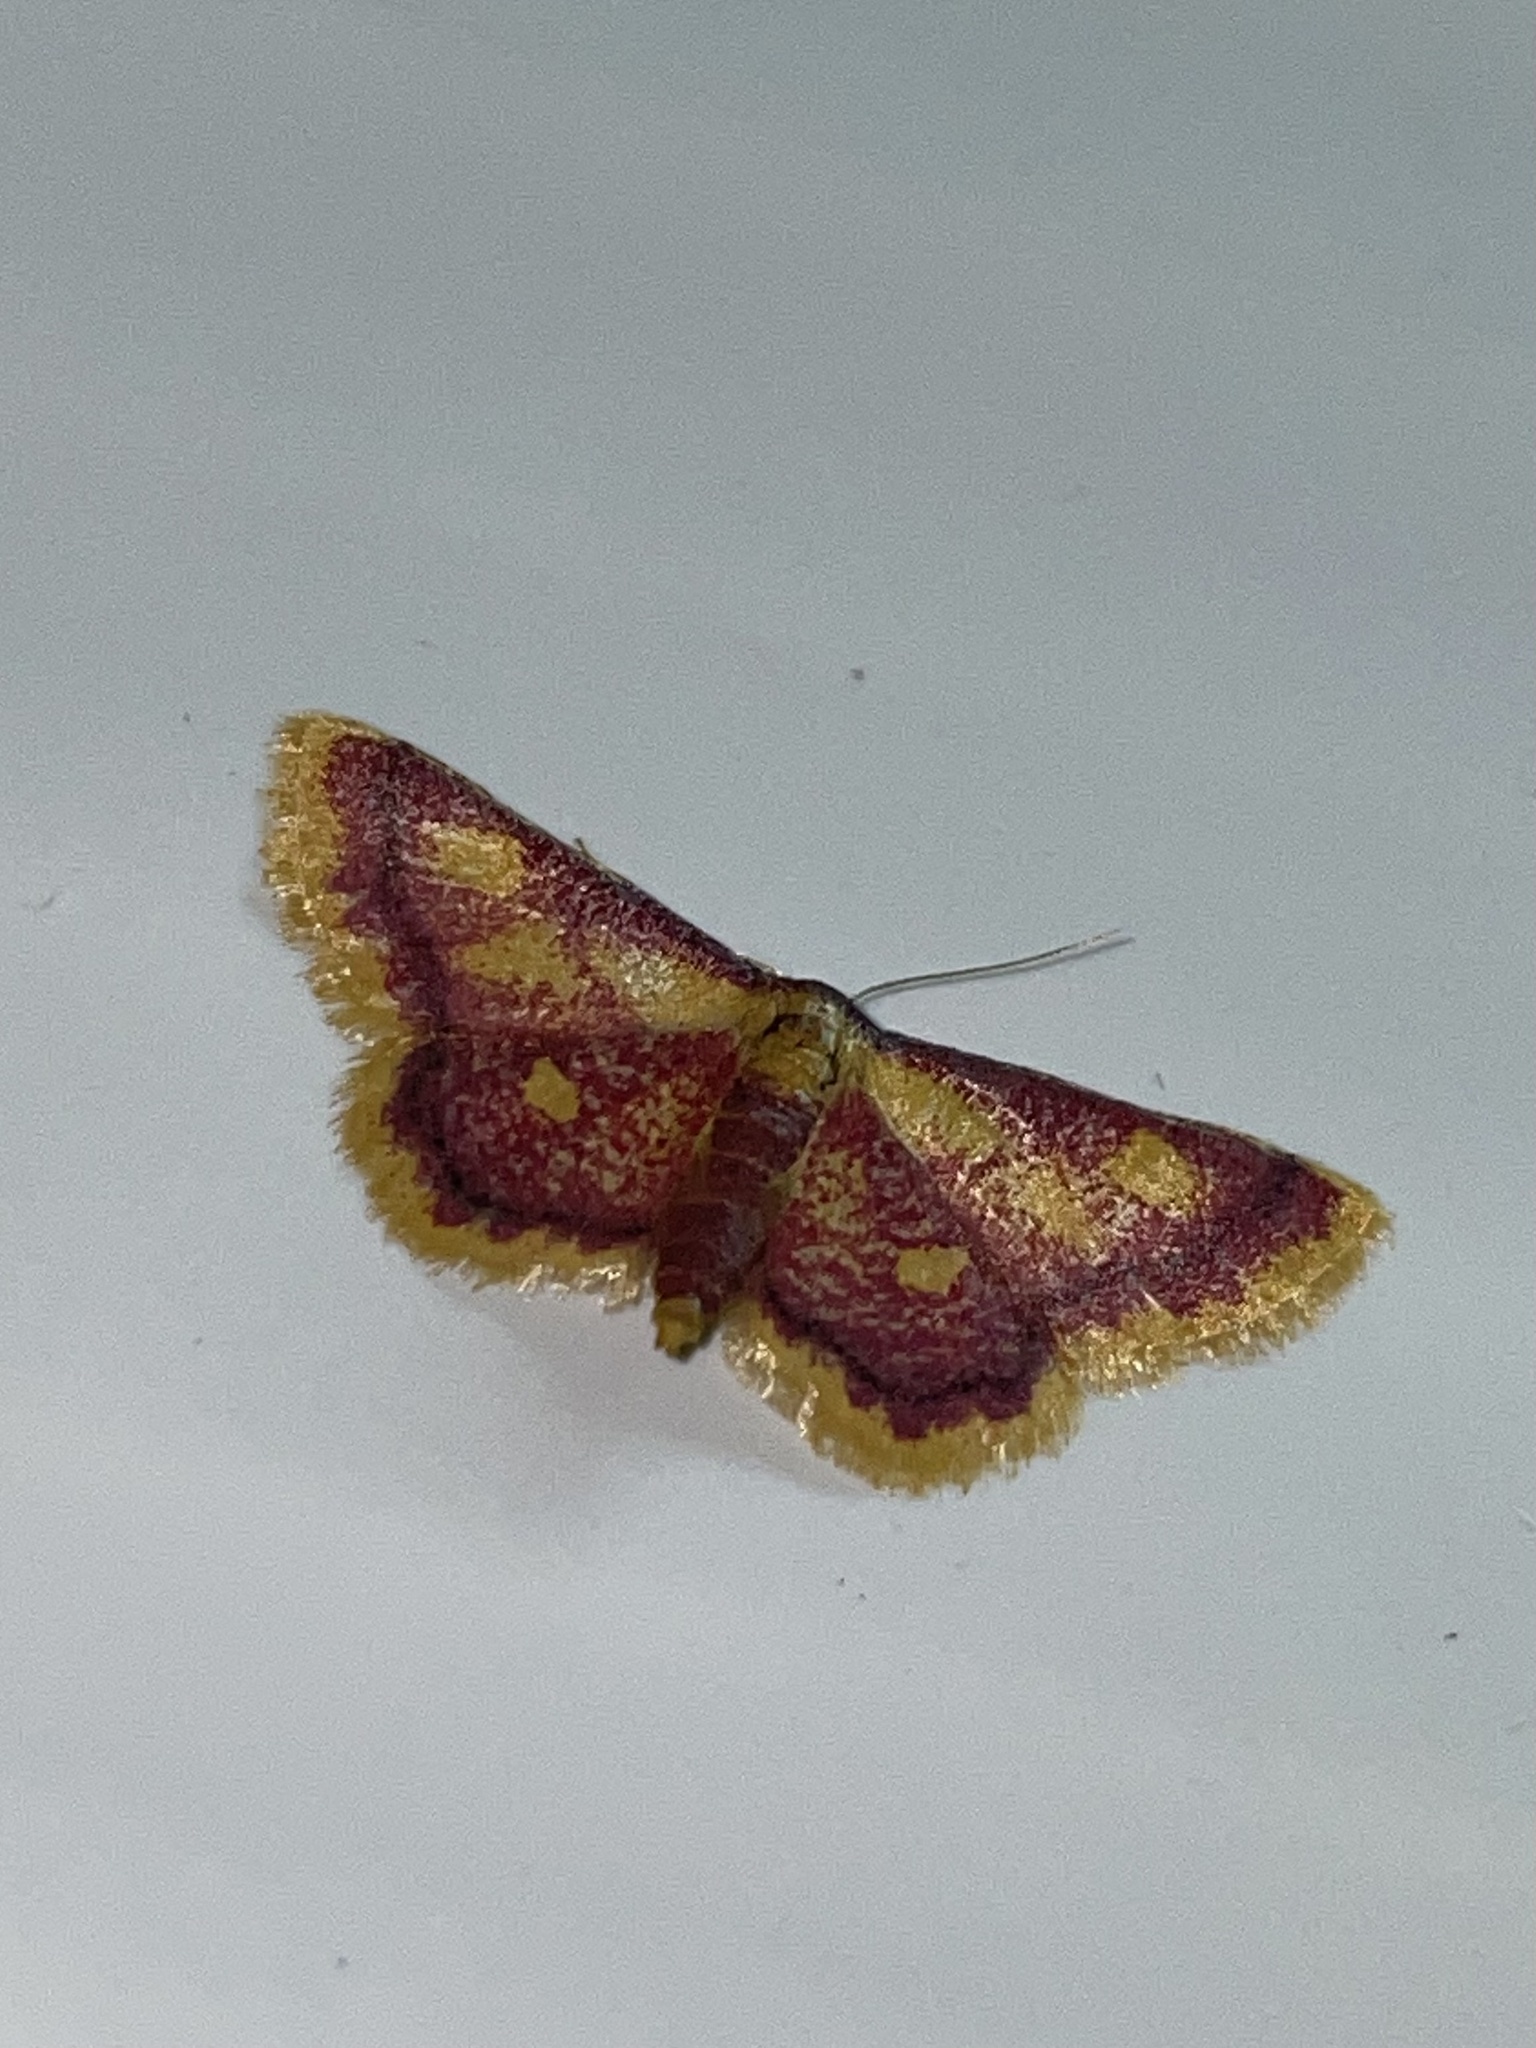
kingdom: Animalia
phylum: Arthropoda
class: Insecta
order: Lepidoptera
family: Geometridae
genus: Idaea
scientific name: Idaea muricata
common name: Purple-bordered gold
